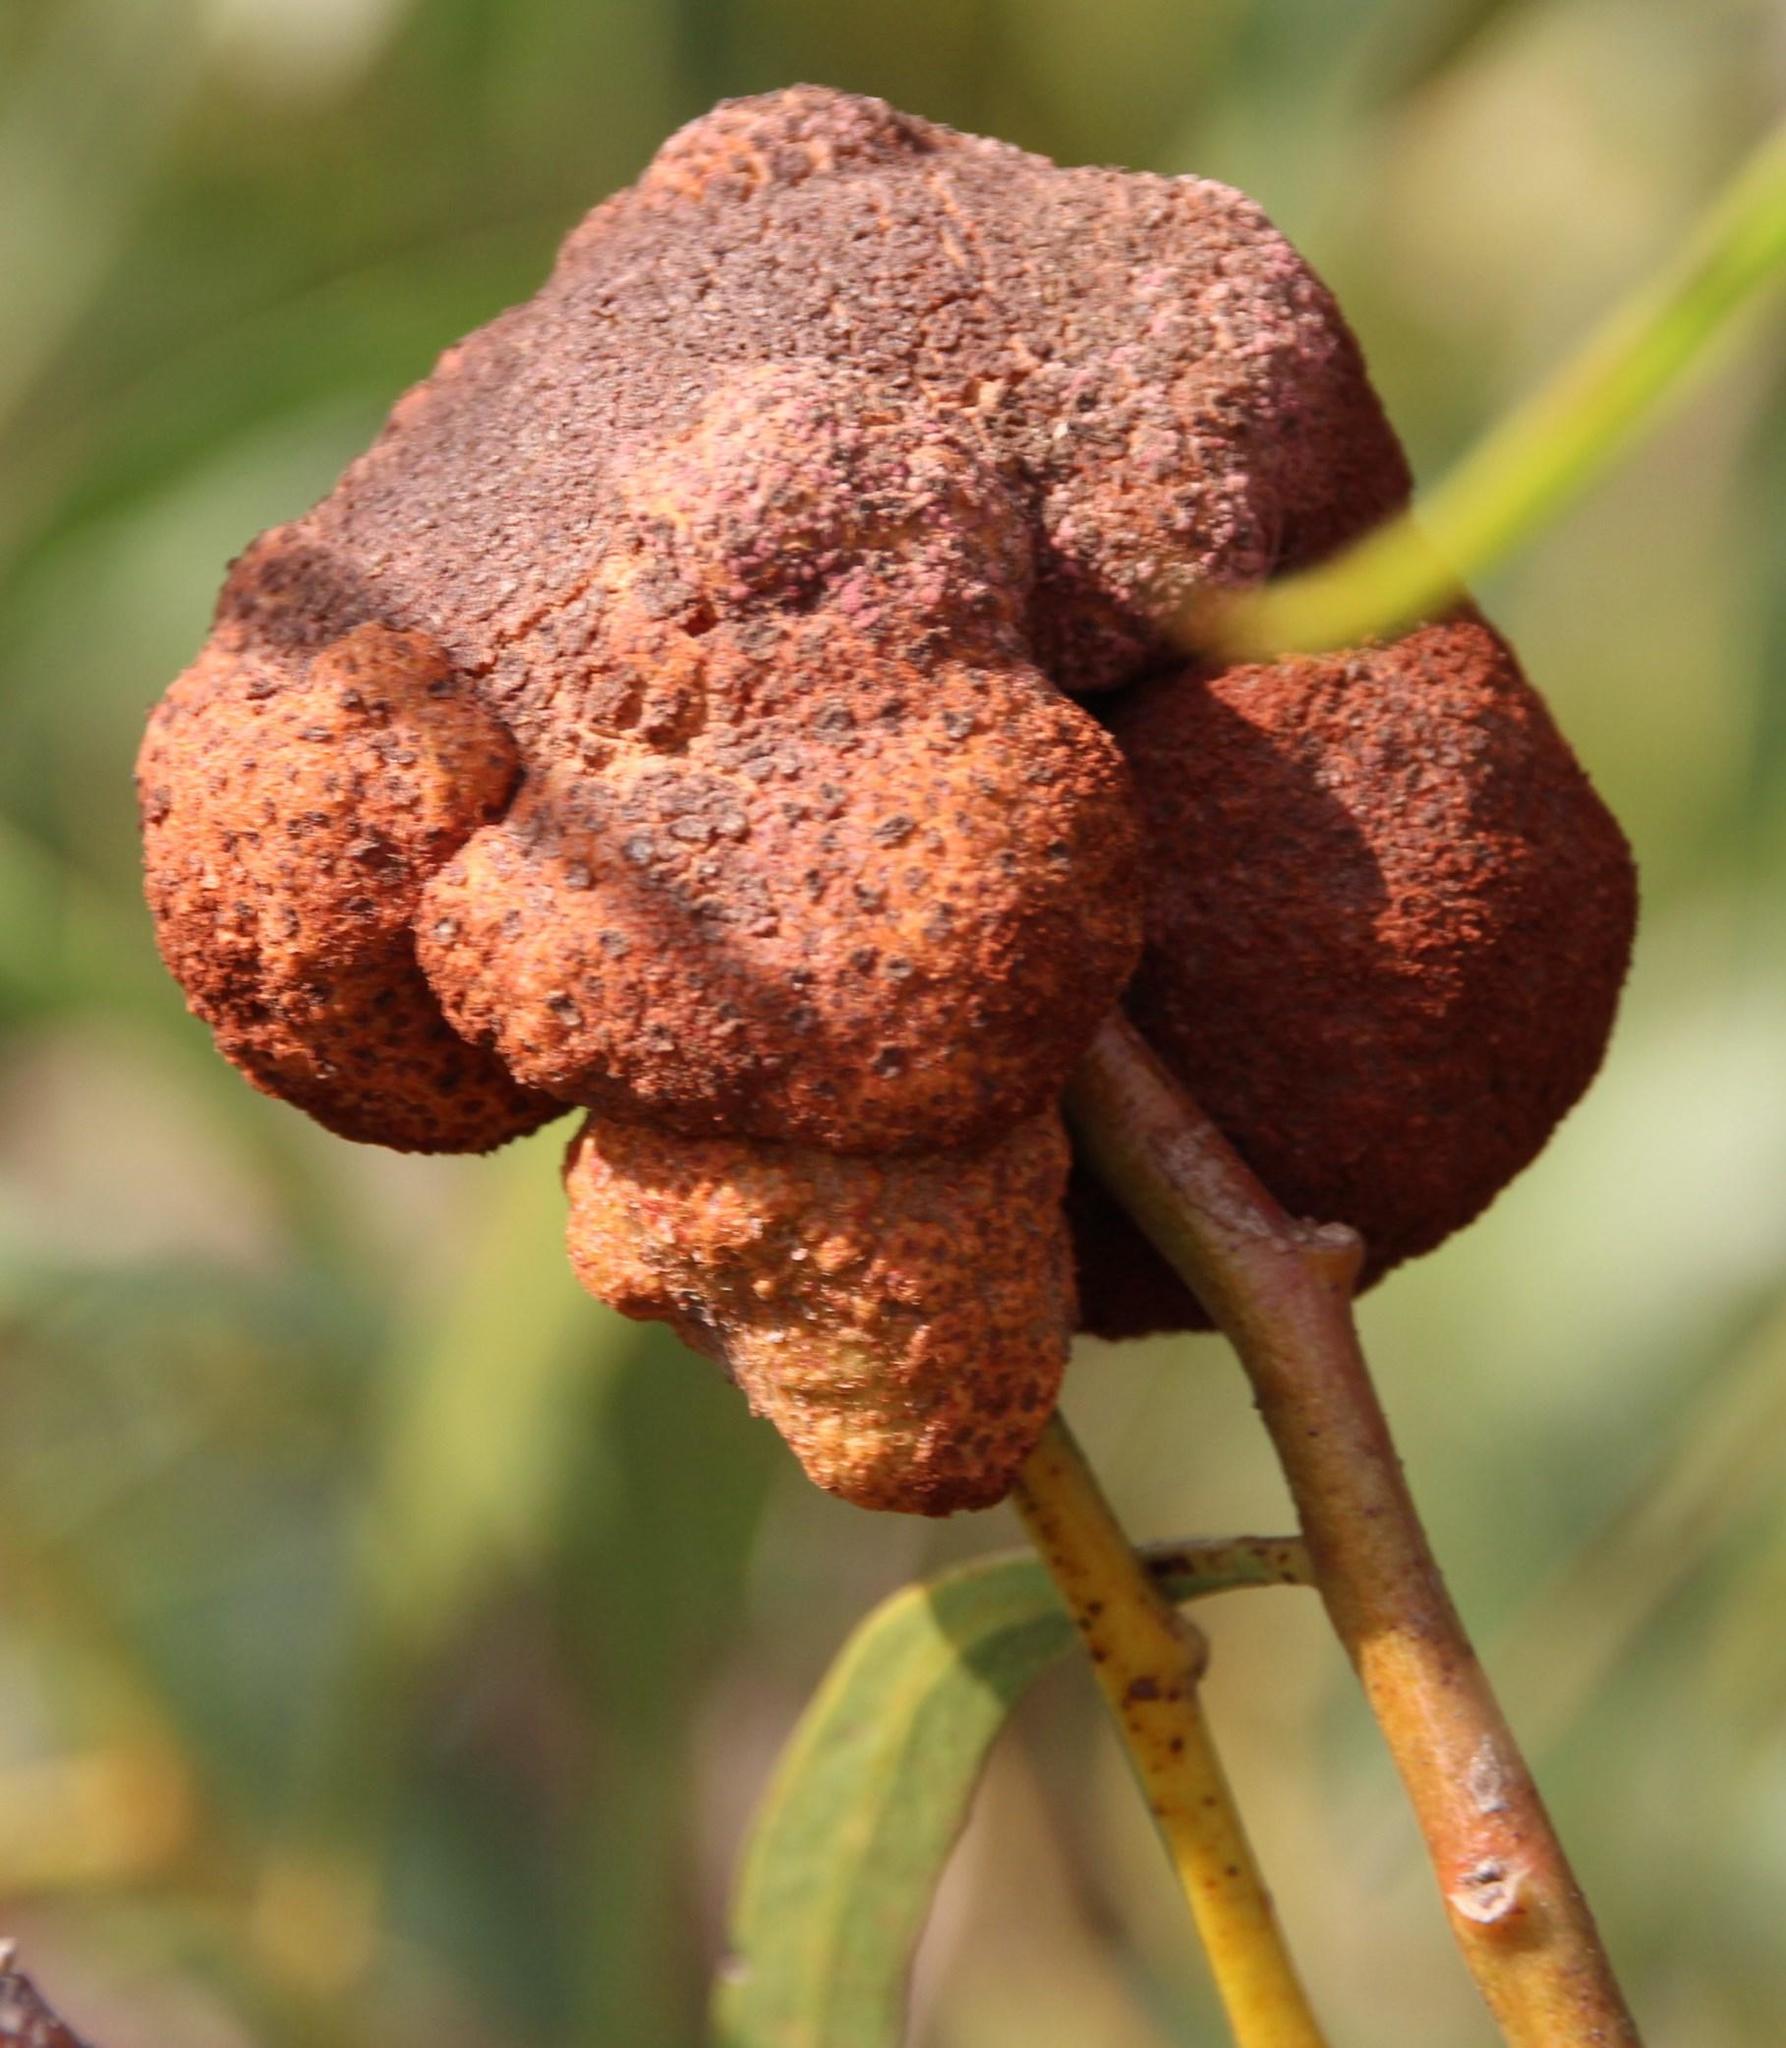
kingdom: Fungi
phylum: Basidiomycota
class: Pucciniomycetes
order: Pucciniales
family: Uromycladiaceae
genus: Uromycladium
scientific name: Uromycladium morrisii
